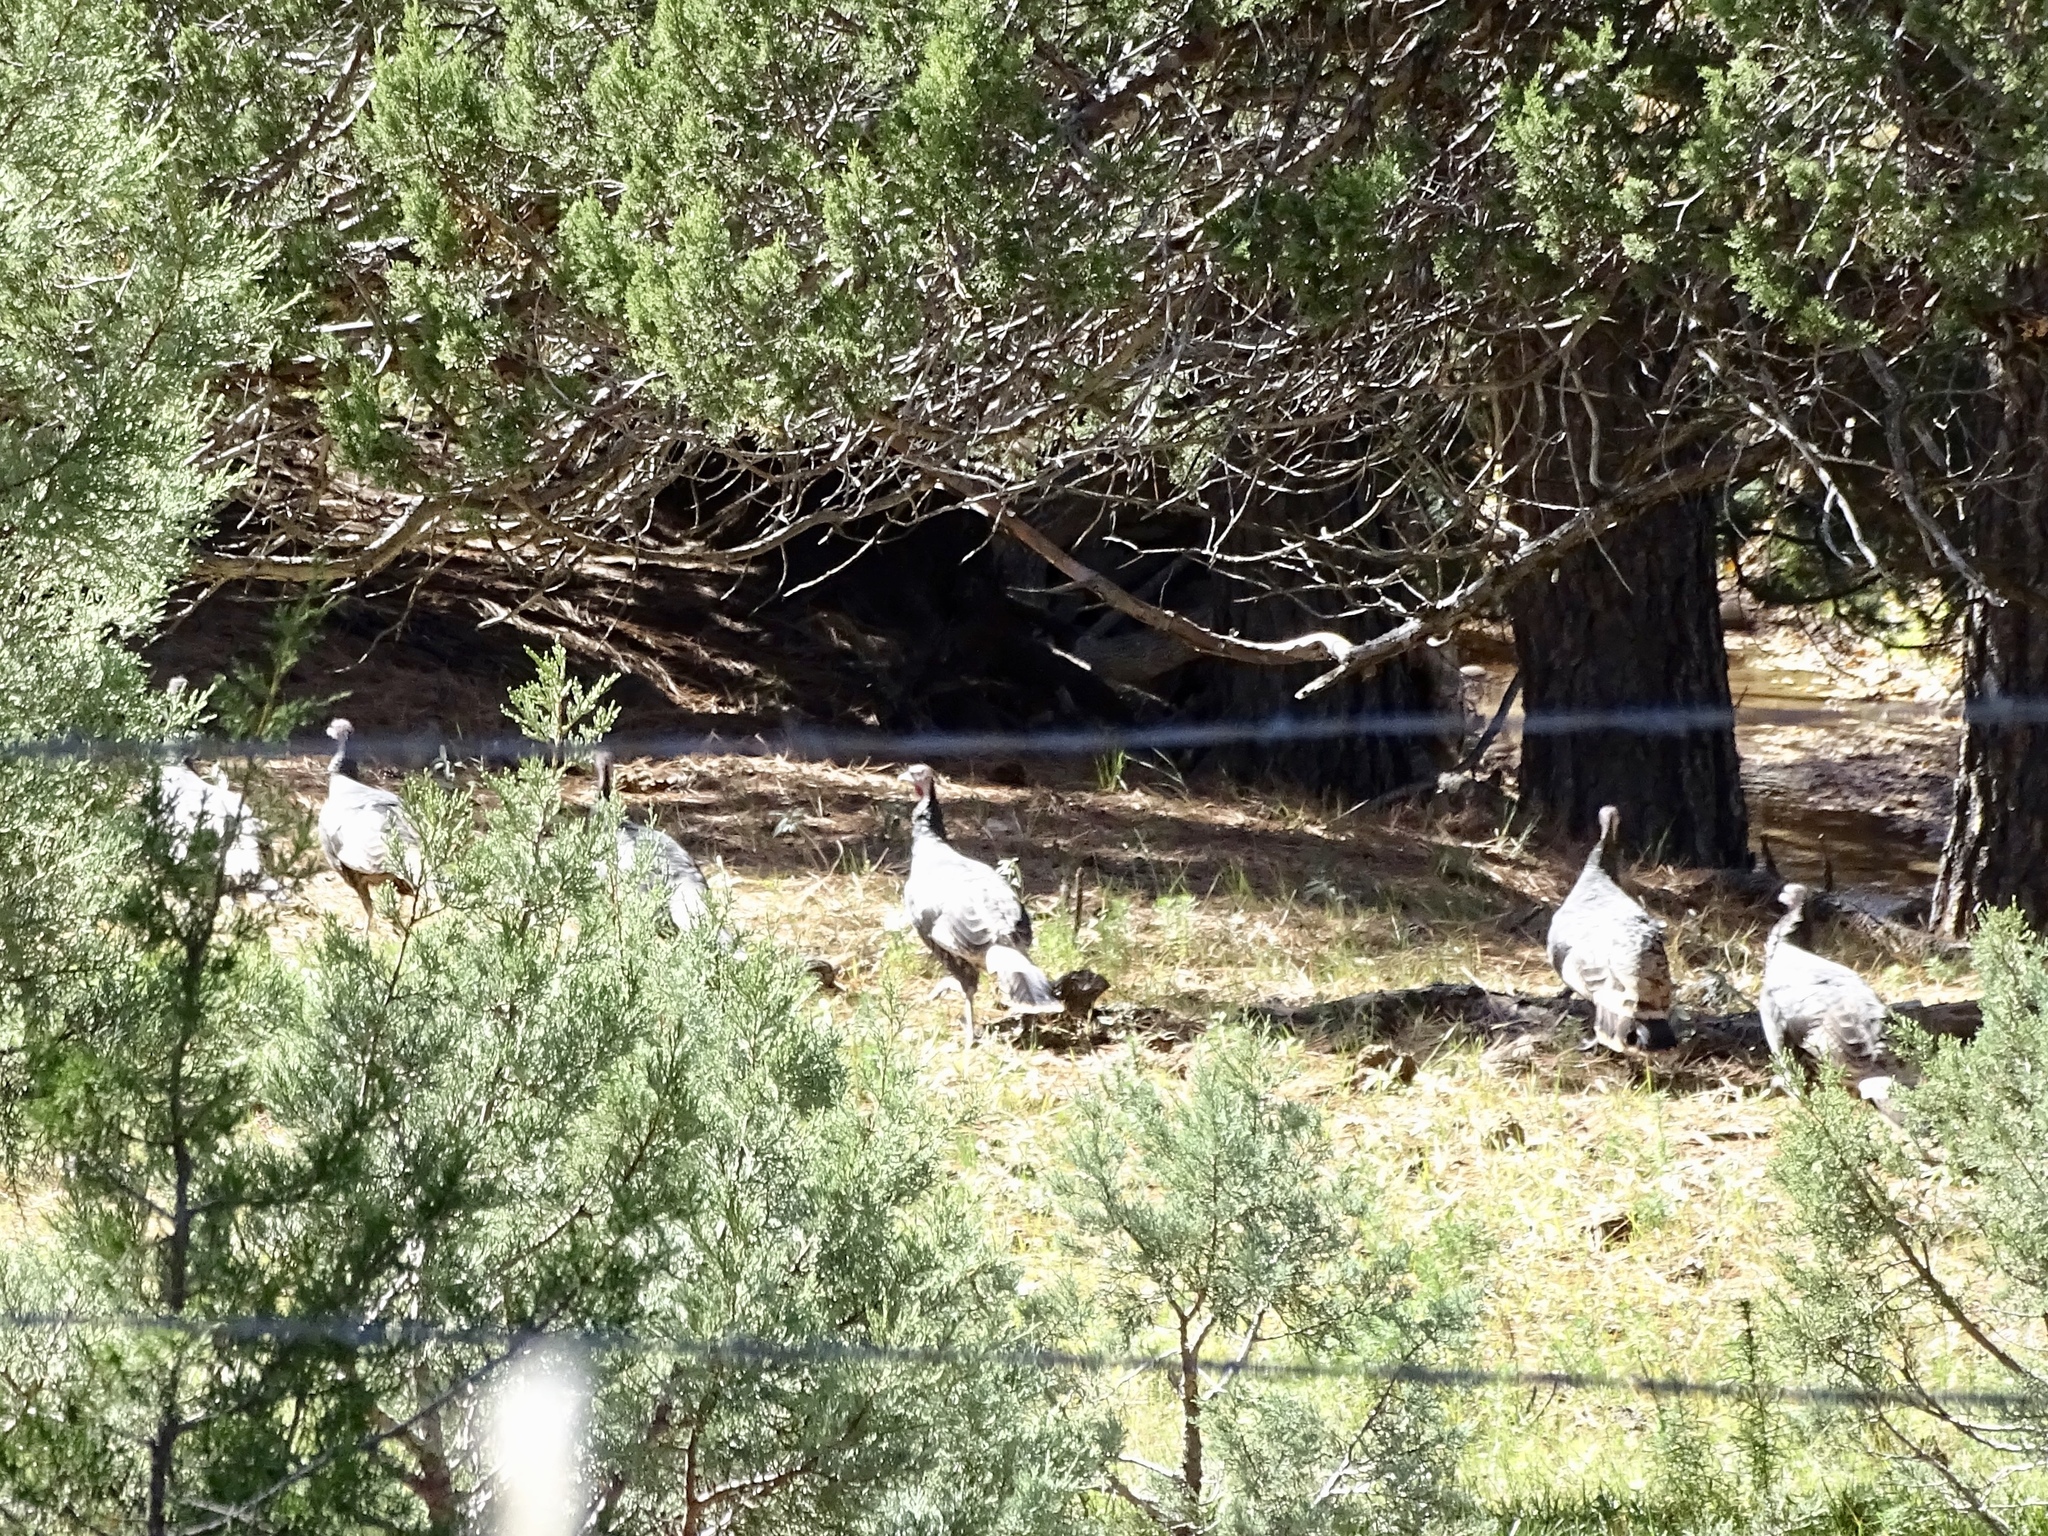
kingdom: Animalia
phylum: Chordata
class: Aves
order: Galliformes
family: Phasianidae
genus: Meleagris
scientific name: Meleagris gallopavo
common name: Wild turkey
